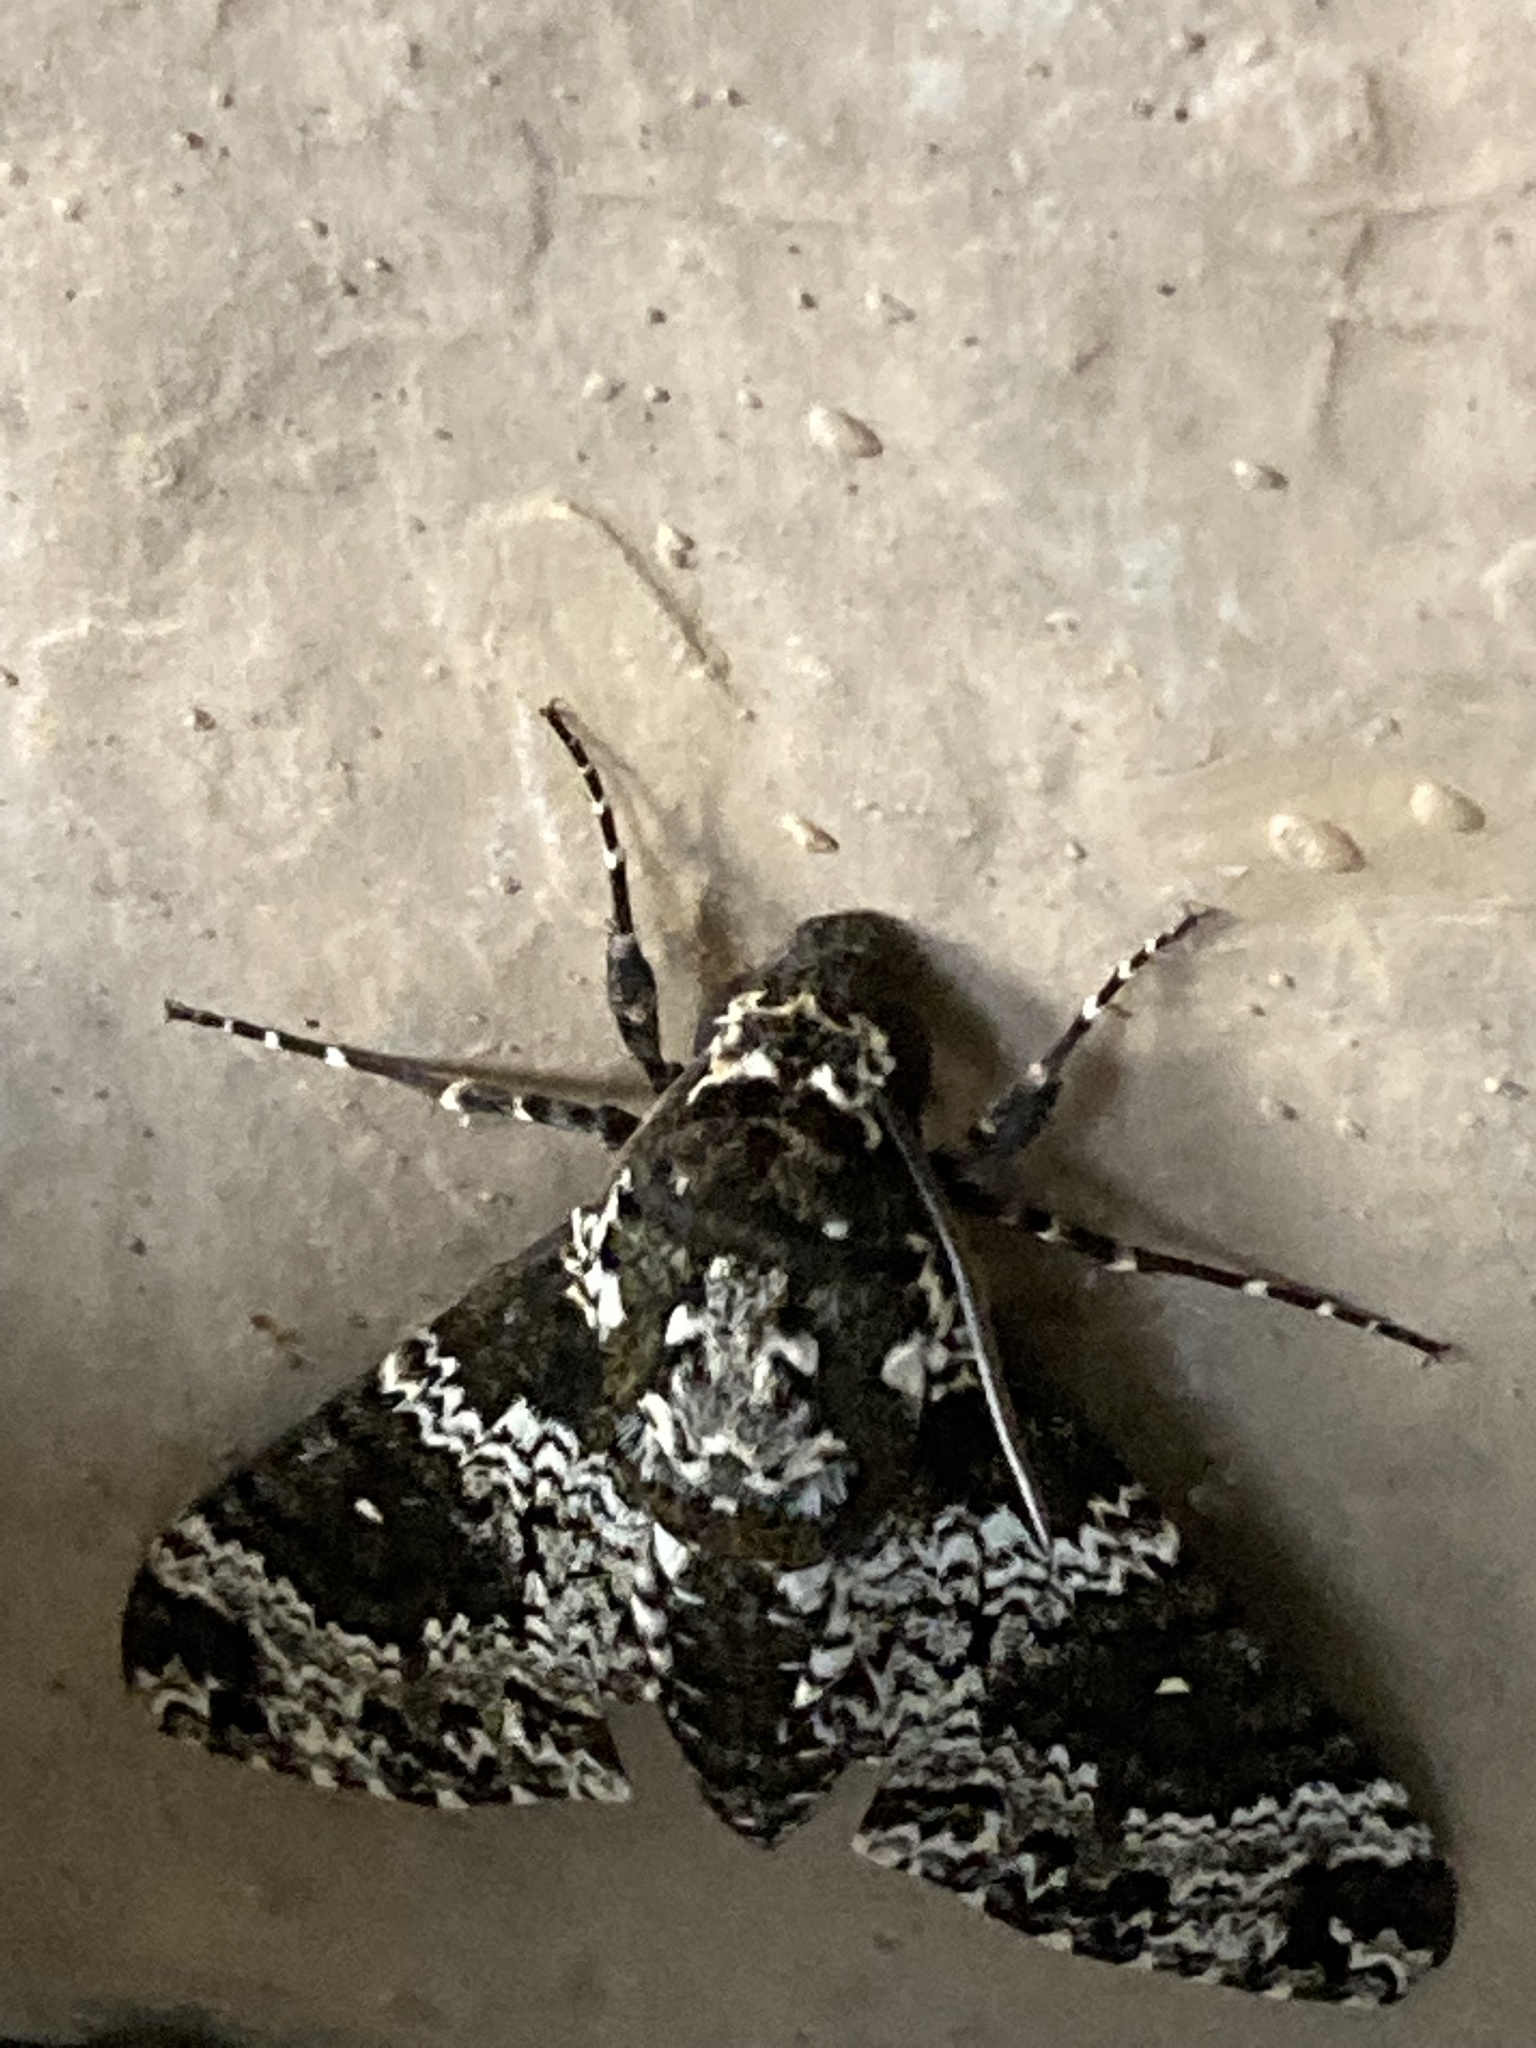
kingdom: Animalia
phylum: Arthropoda
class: Insecta
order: Lepidoptera
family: Sphingidae
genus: Manduca
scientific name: Manduca rustica
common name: Rustic sphinx
